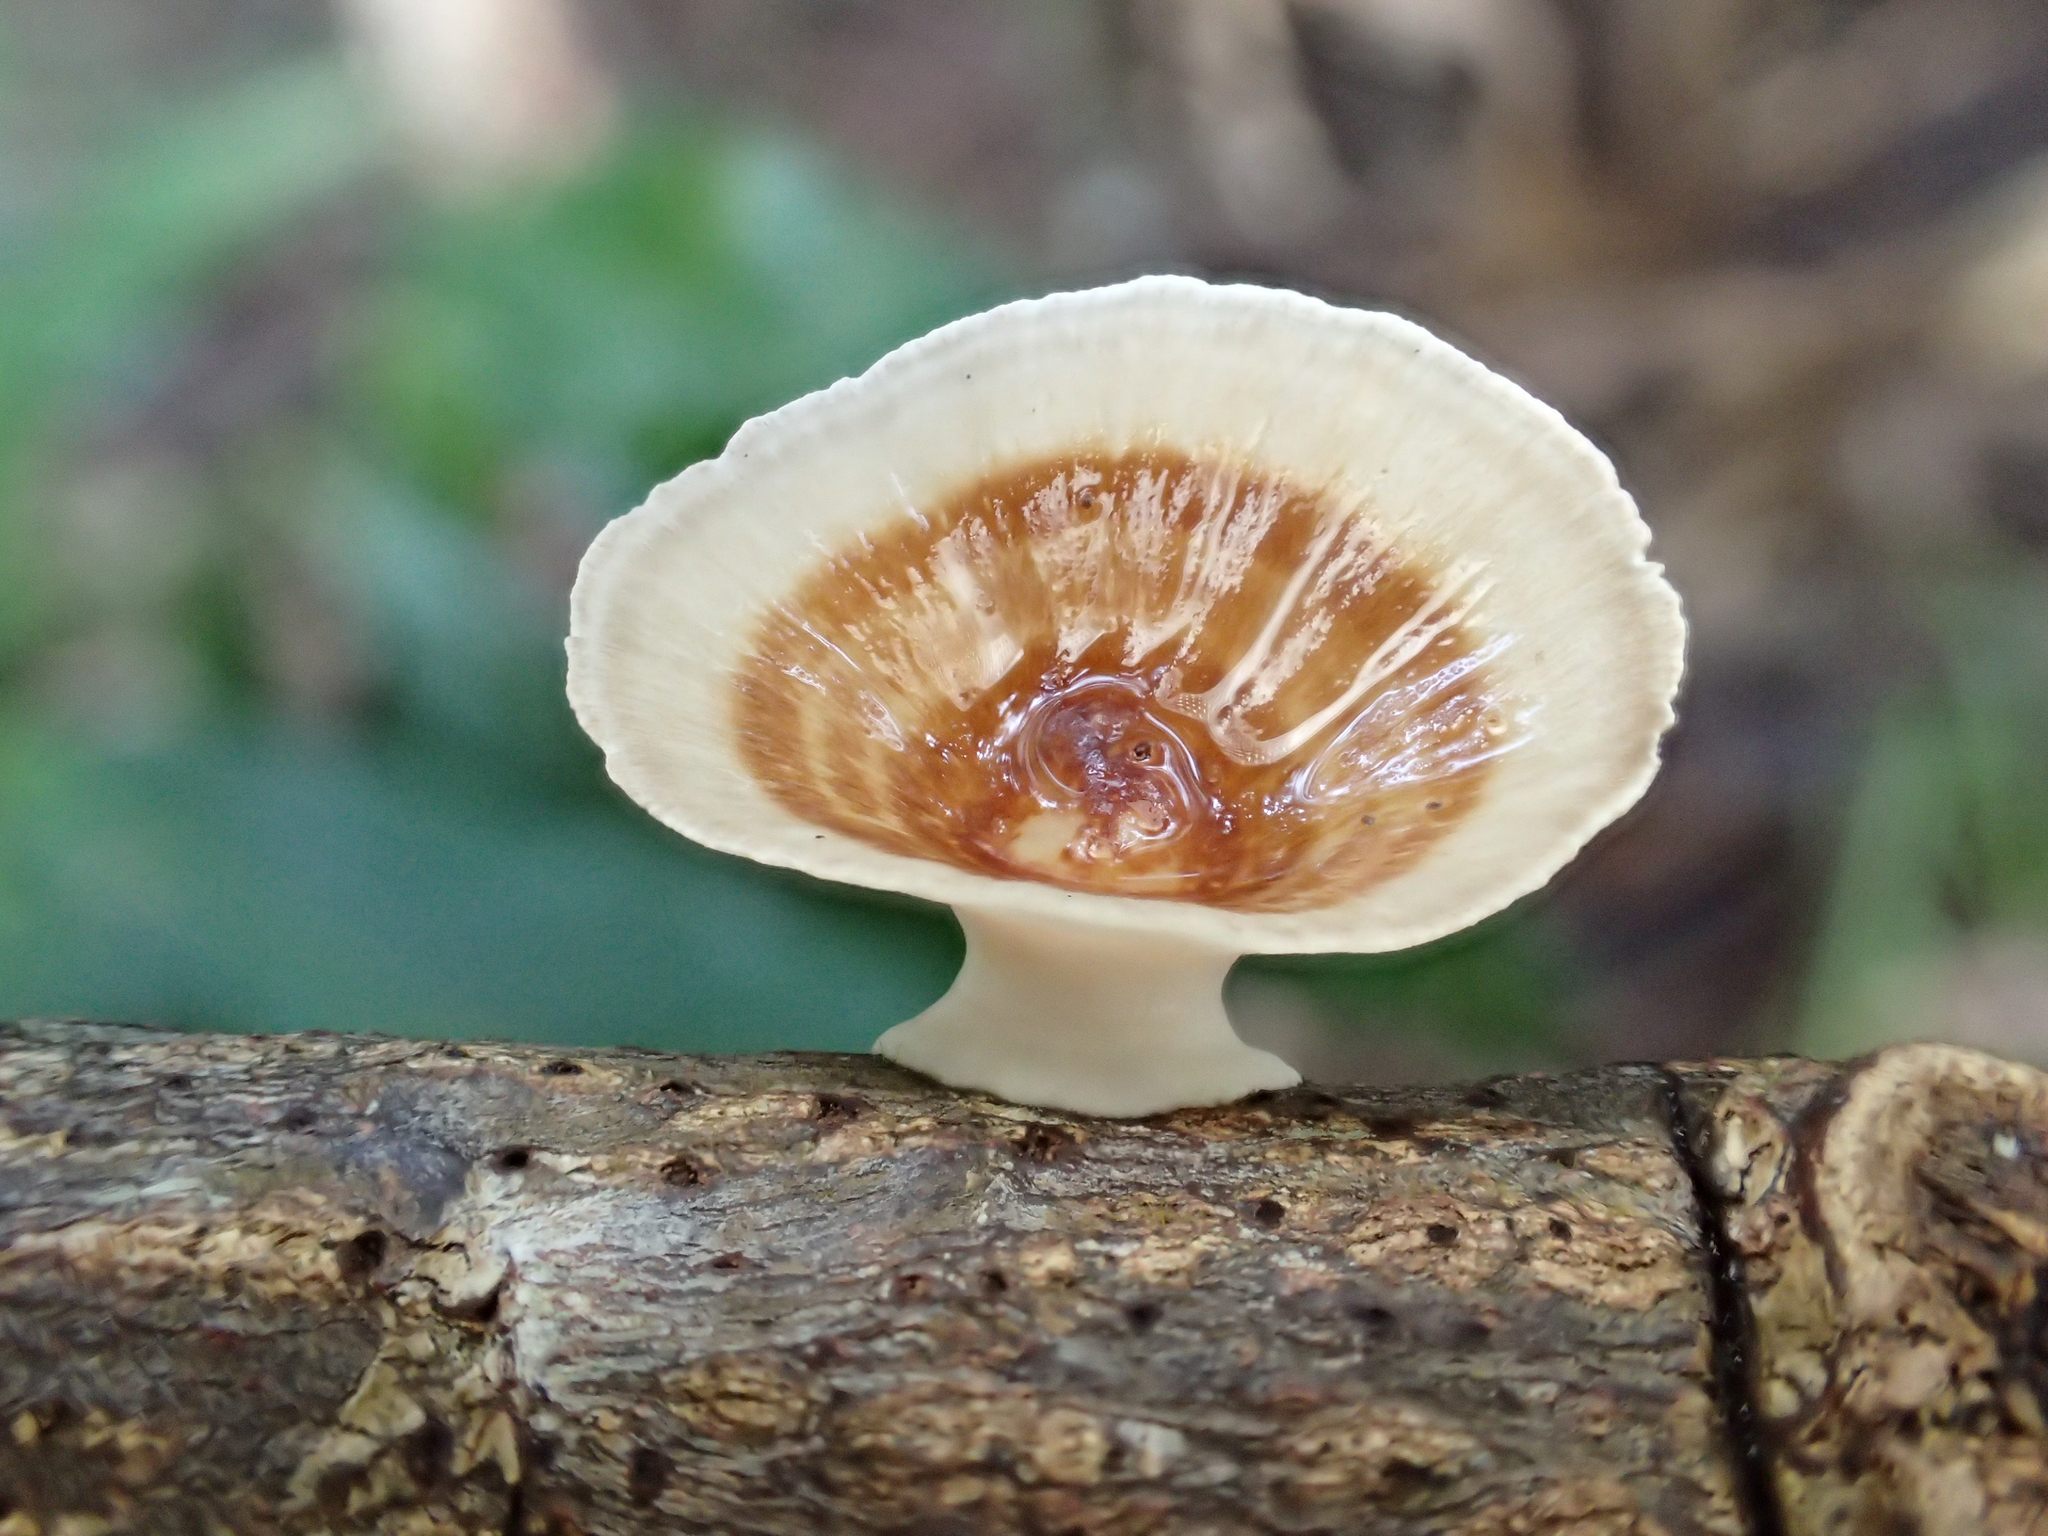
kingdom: Fungi
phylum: Basidiomycota
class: Agaricomycetes
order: Polyporales
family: Polyporaceae
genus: Microporus
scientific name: Microporus xanthopus
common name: Yellow-stemmed micropore
